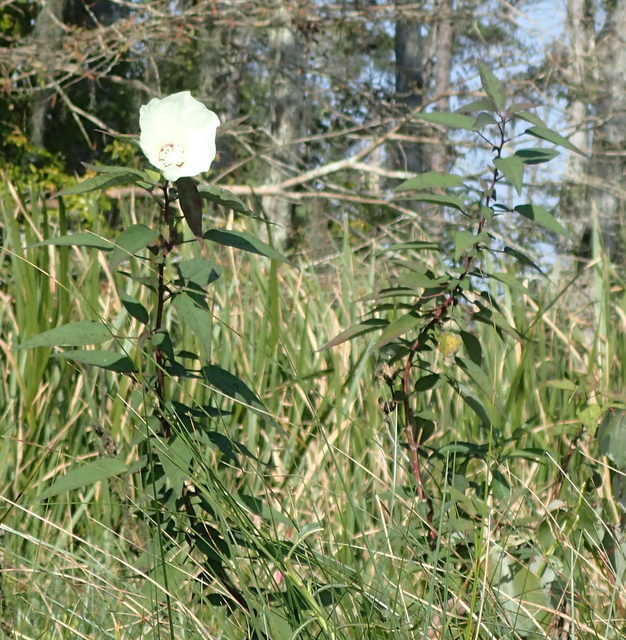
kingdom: Plantae
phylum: Tracheophyta
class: Magnoliopsida
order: Malvales
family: Malvaceae
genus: Hibiscus
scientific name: Hibiscus moscheutos
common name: Common rose-mallow
